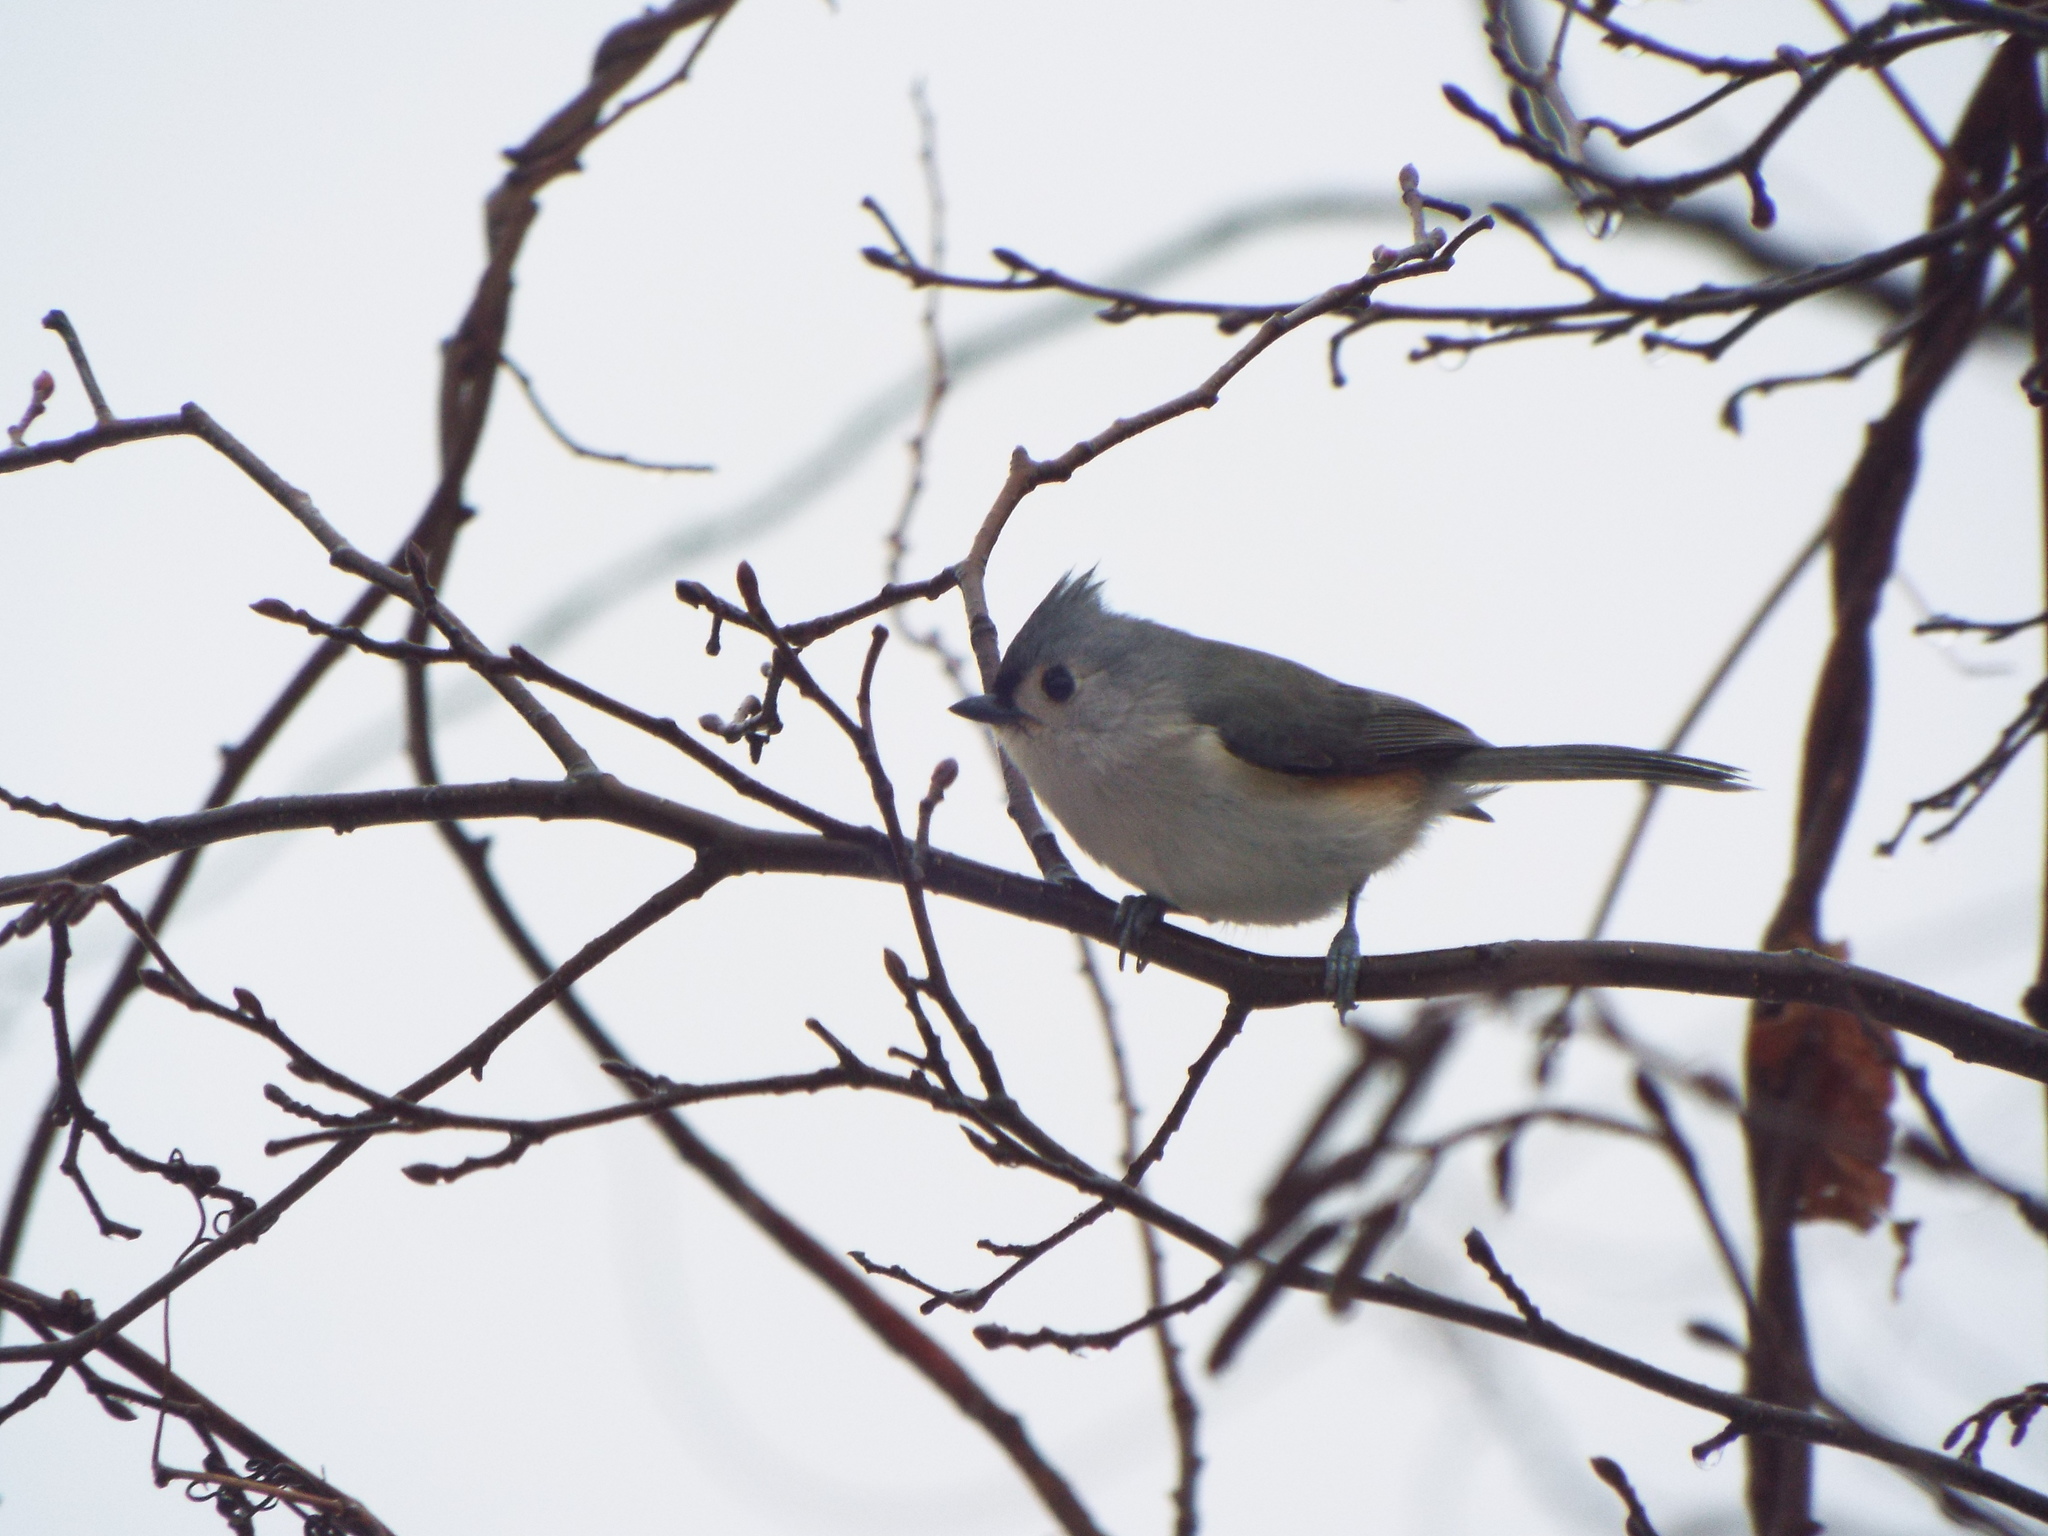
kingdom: Animalia
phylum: Chordata
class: Aves
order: Passeriformes
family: Paridae
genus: Baeolophus
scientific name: Baeolophus bicolor
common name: Tufted titmouse
